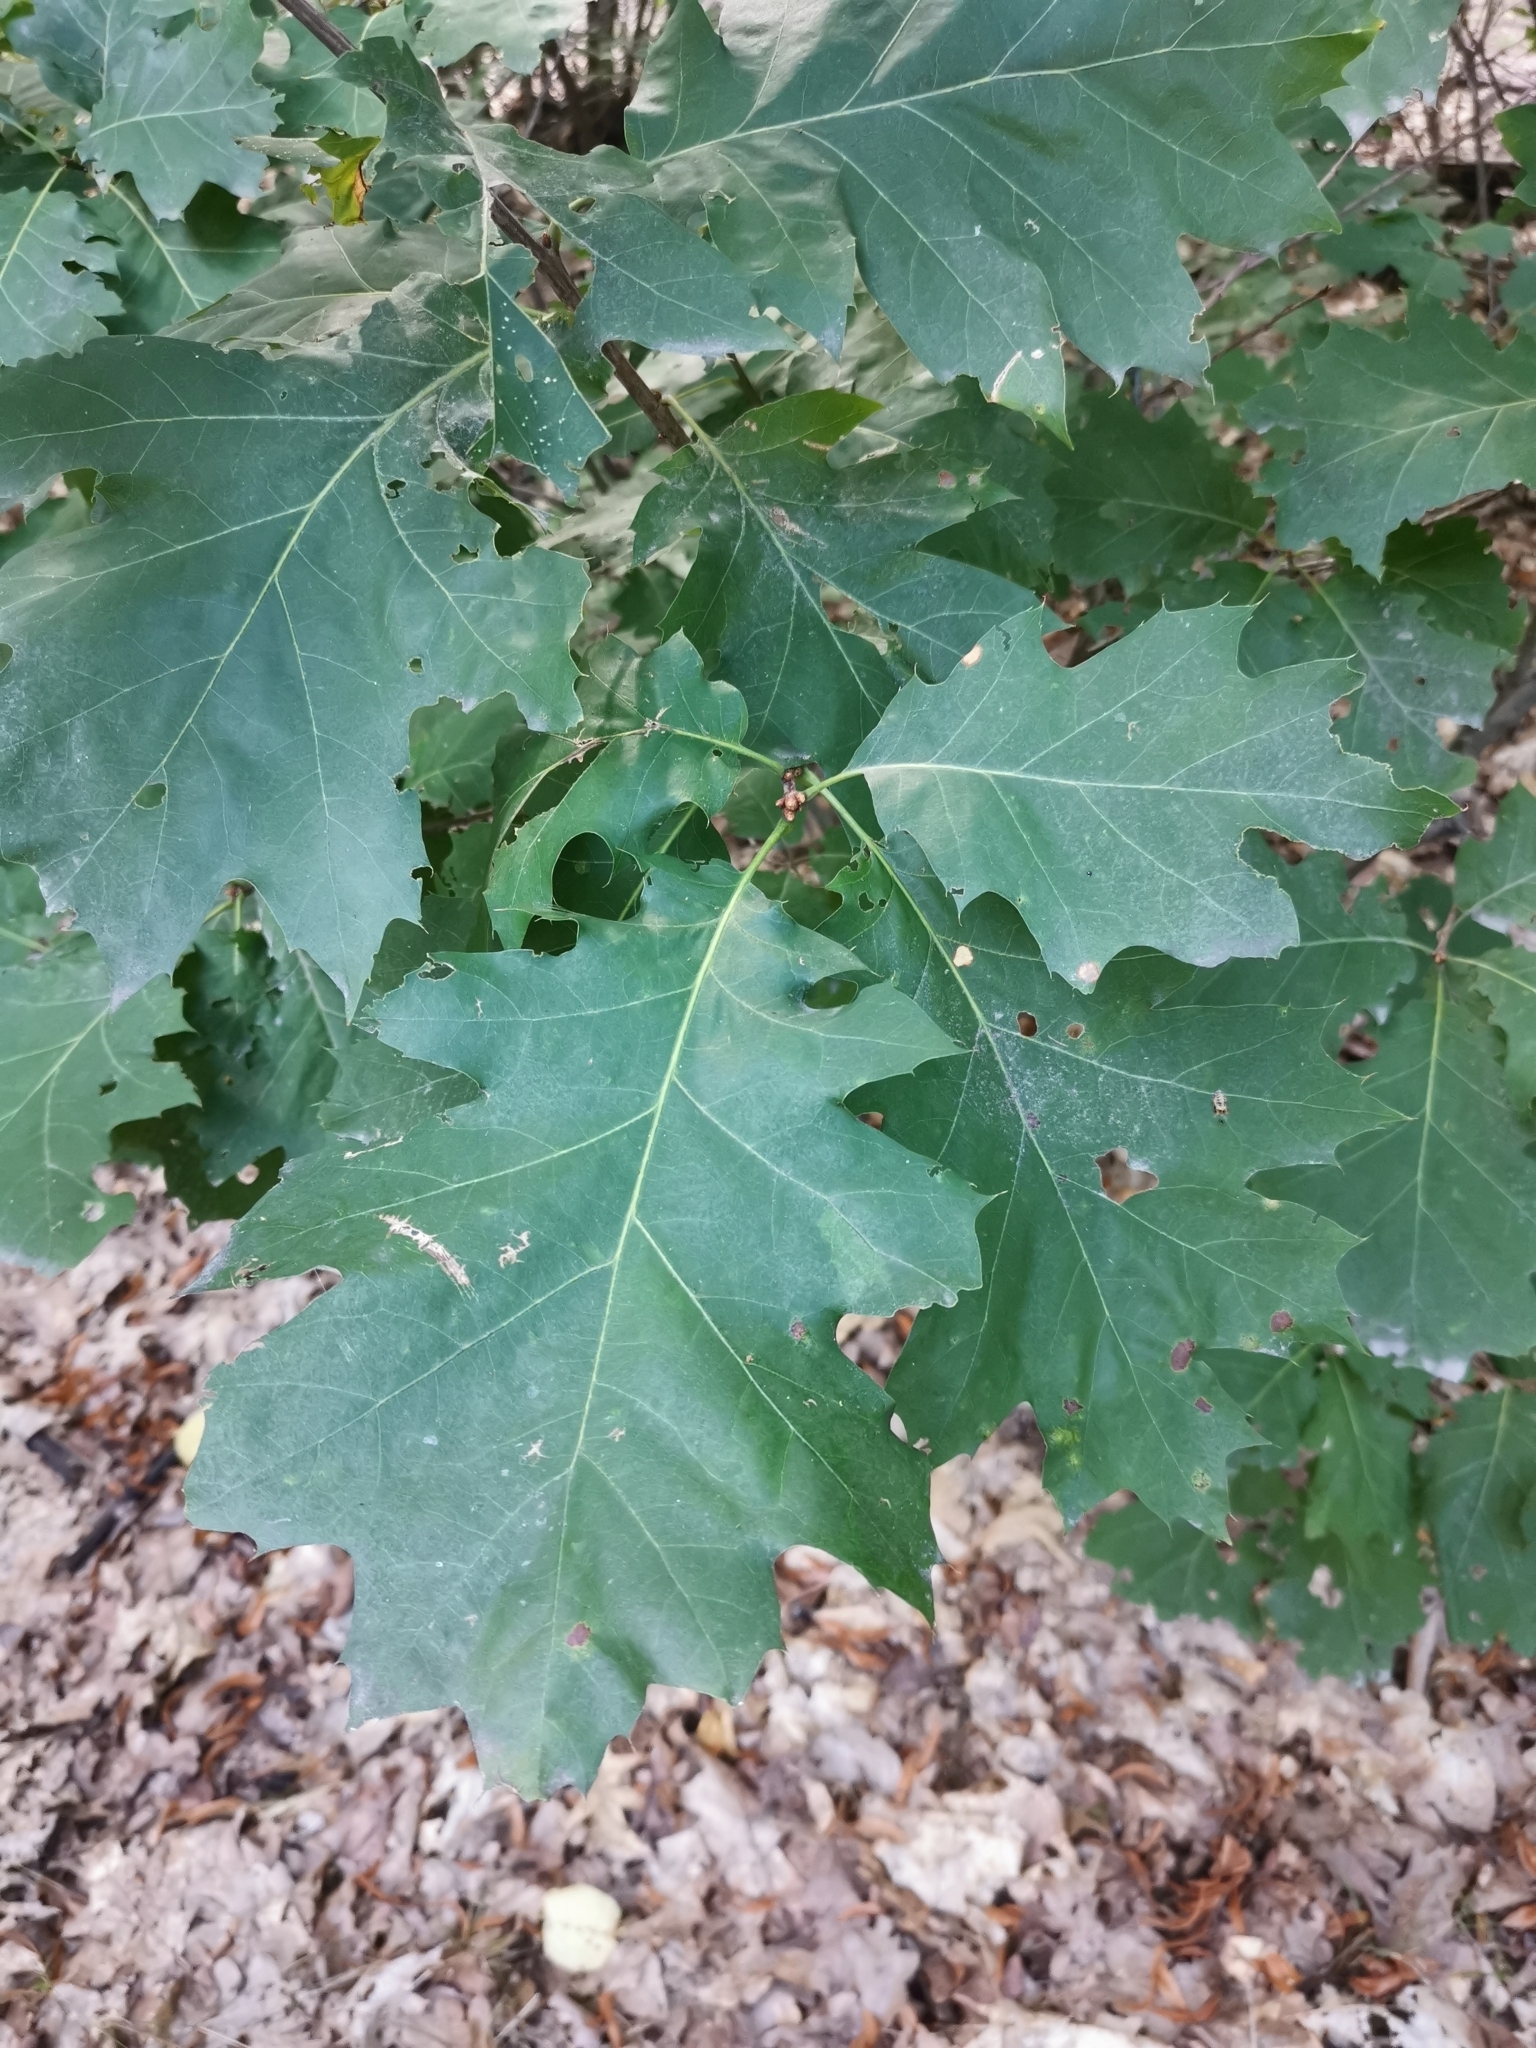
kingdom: Plantae
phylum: Tracheophyta
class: Magnoliopsida
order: Fagales
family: Fagaceae
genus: Quercus
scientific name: Quercus rubra
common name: Red oak
